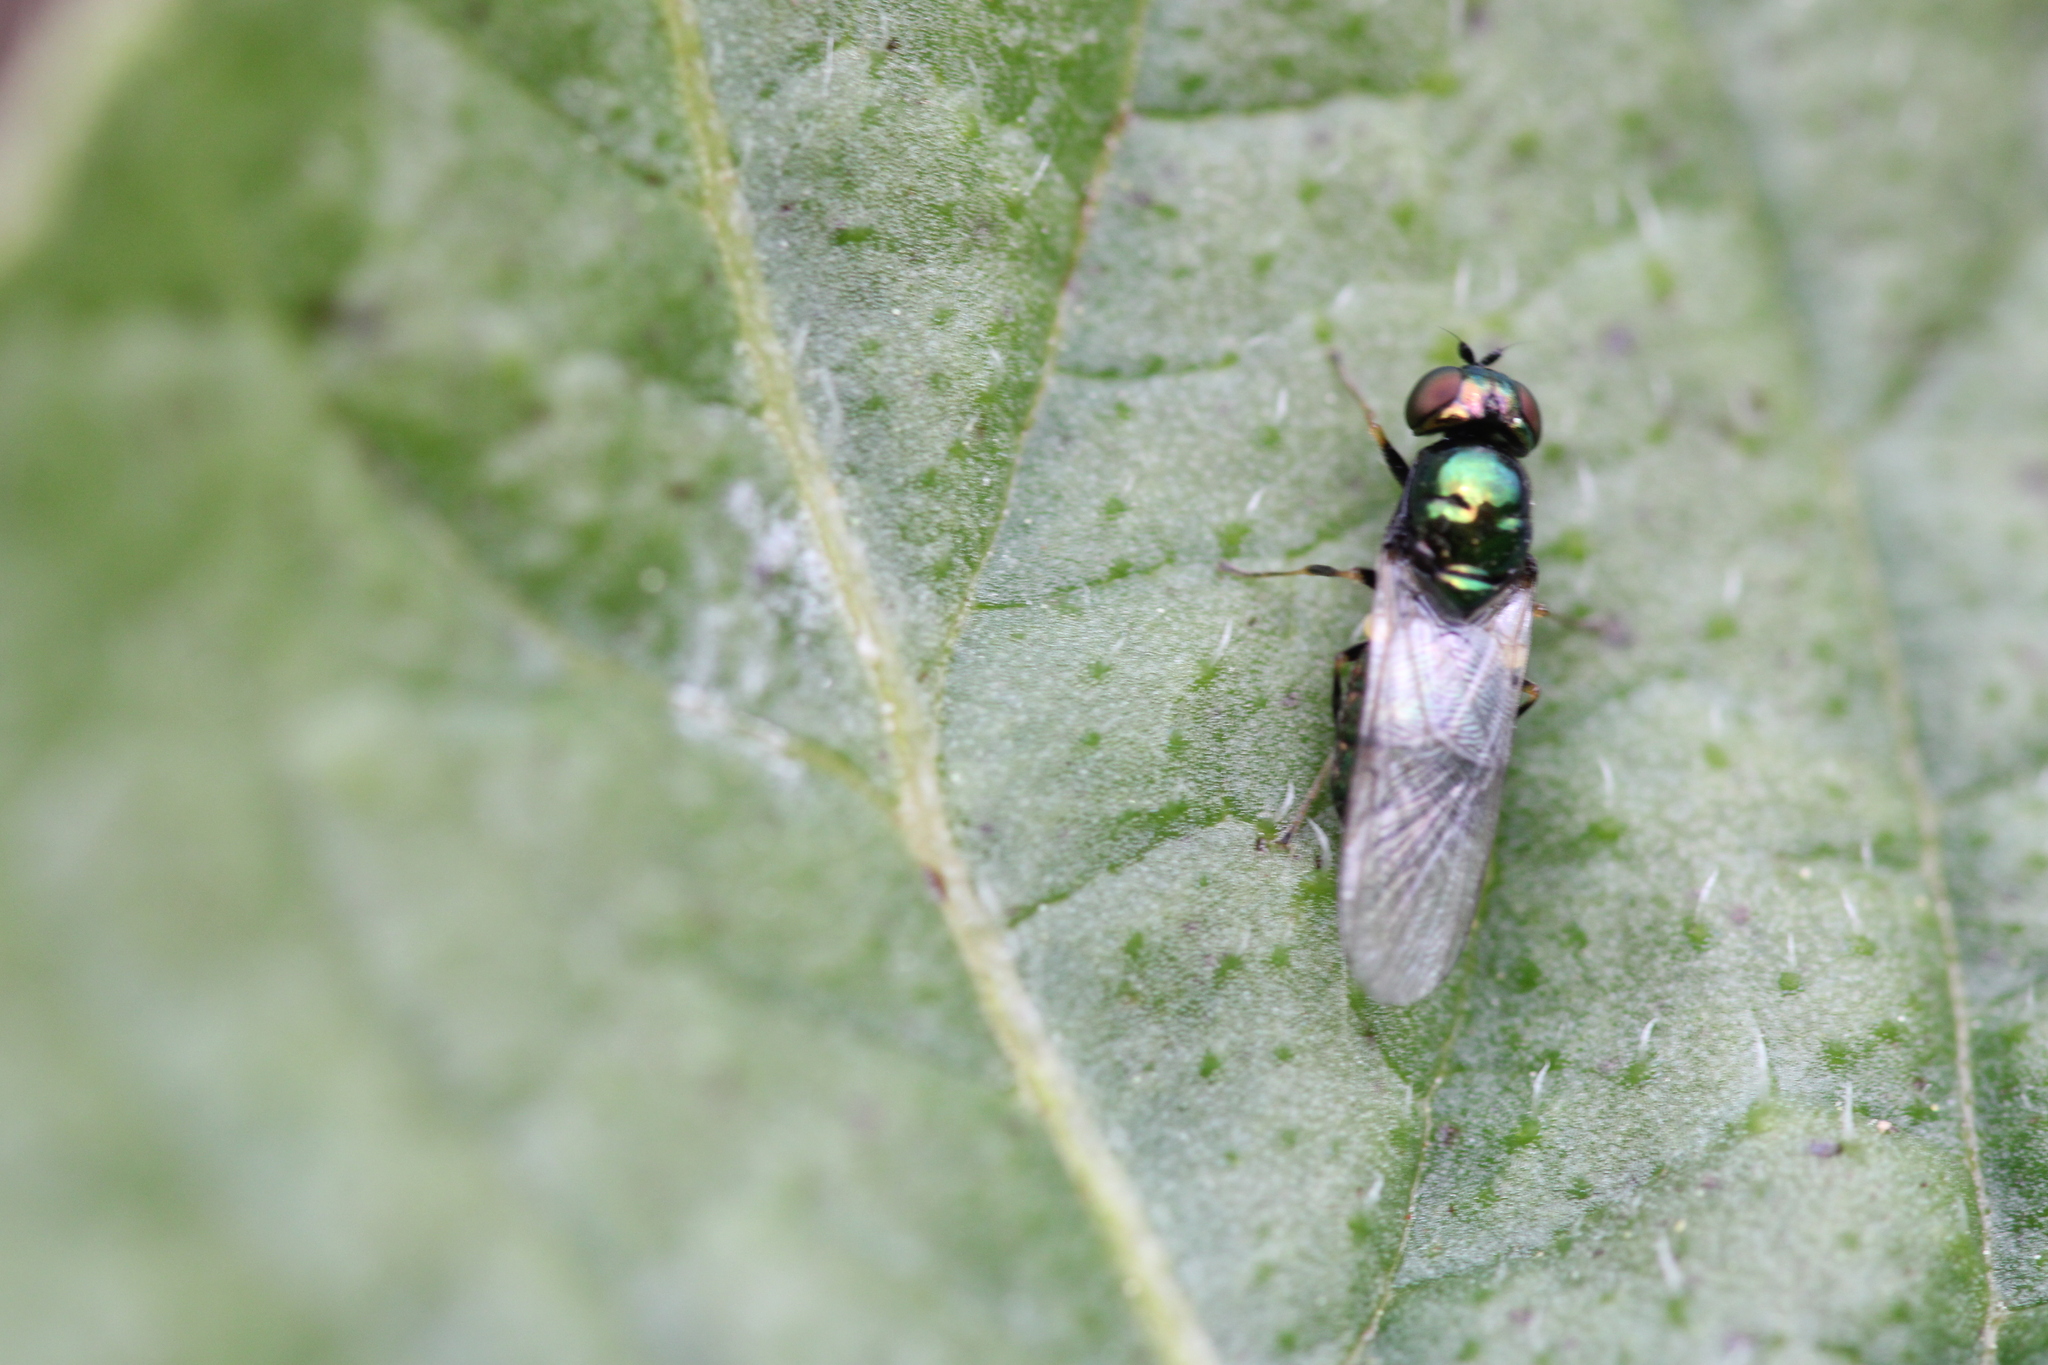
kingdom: Animalia
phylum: Arthropoda
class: Insecta
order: Diptera
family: Stratiomyidae
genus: Microchrysa
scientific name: Microchrysa polita
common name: Black-horned gem
